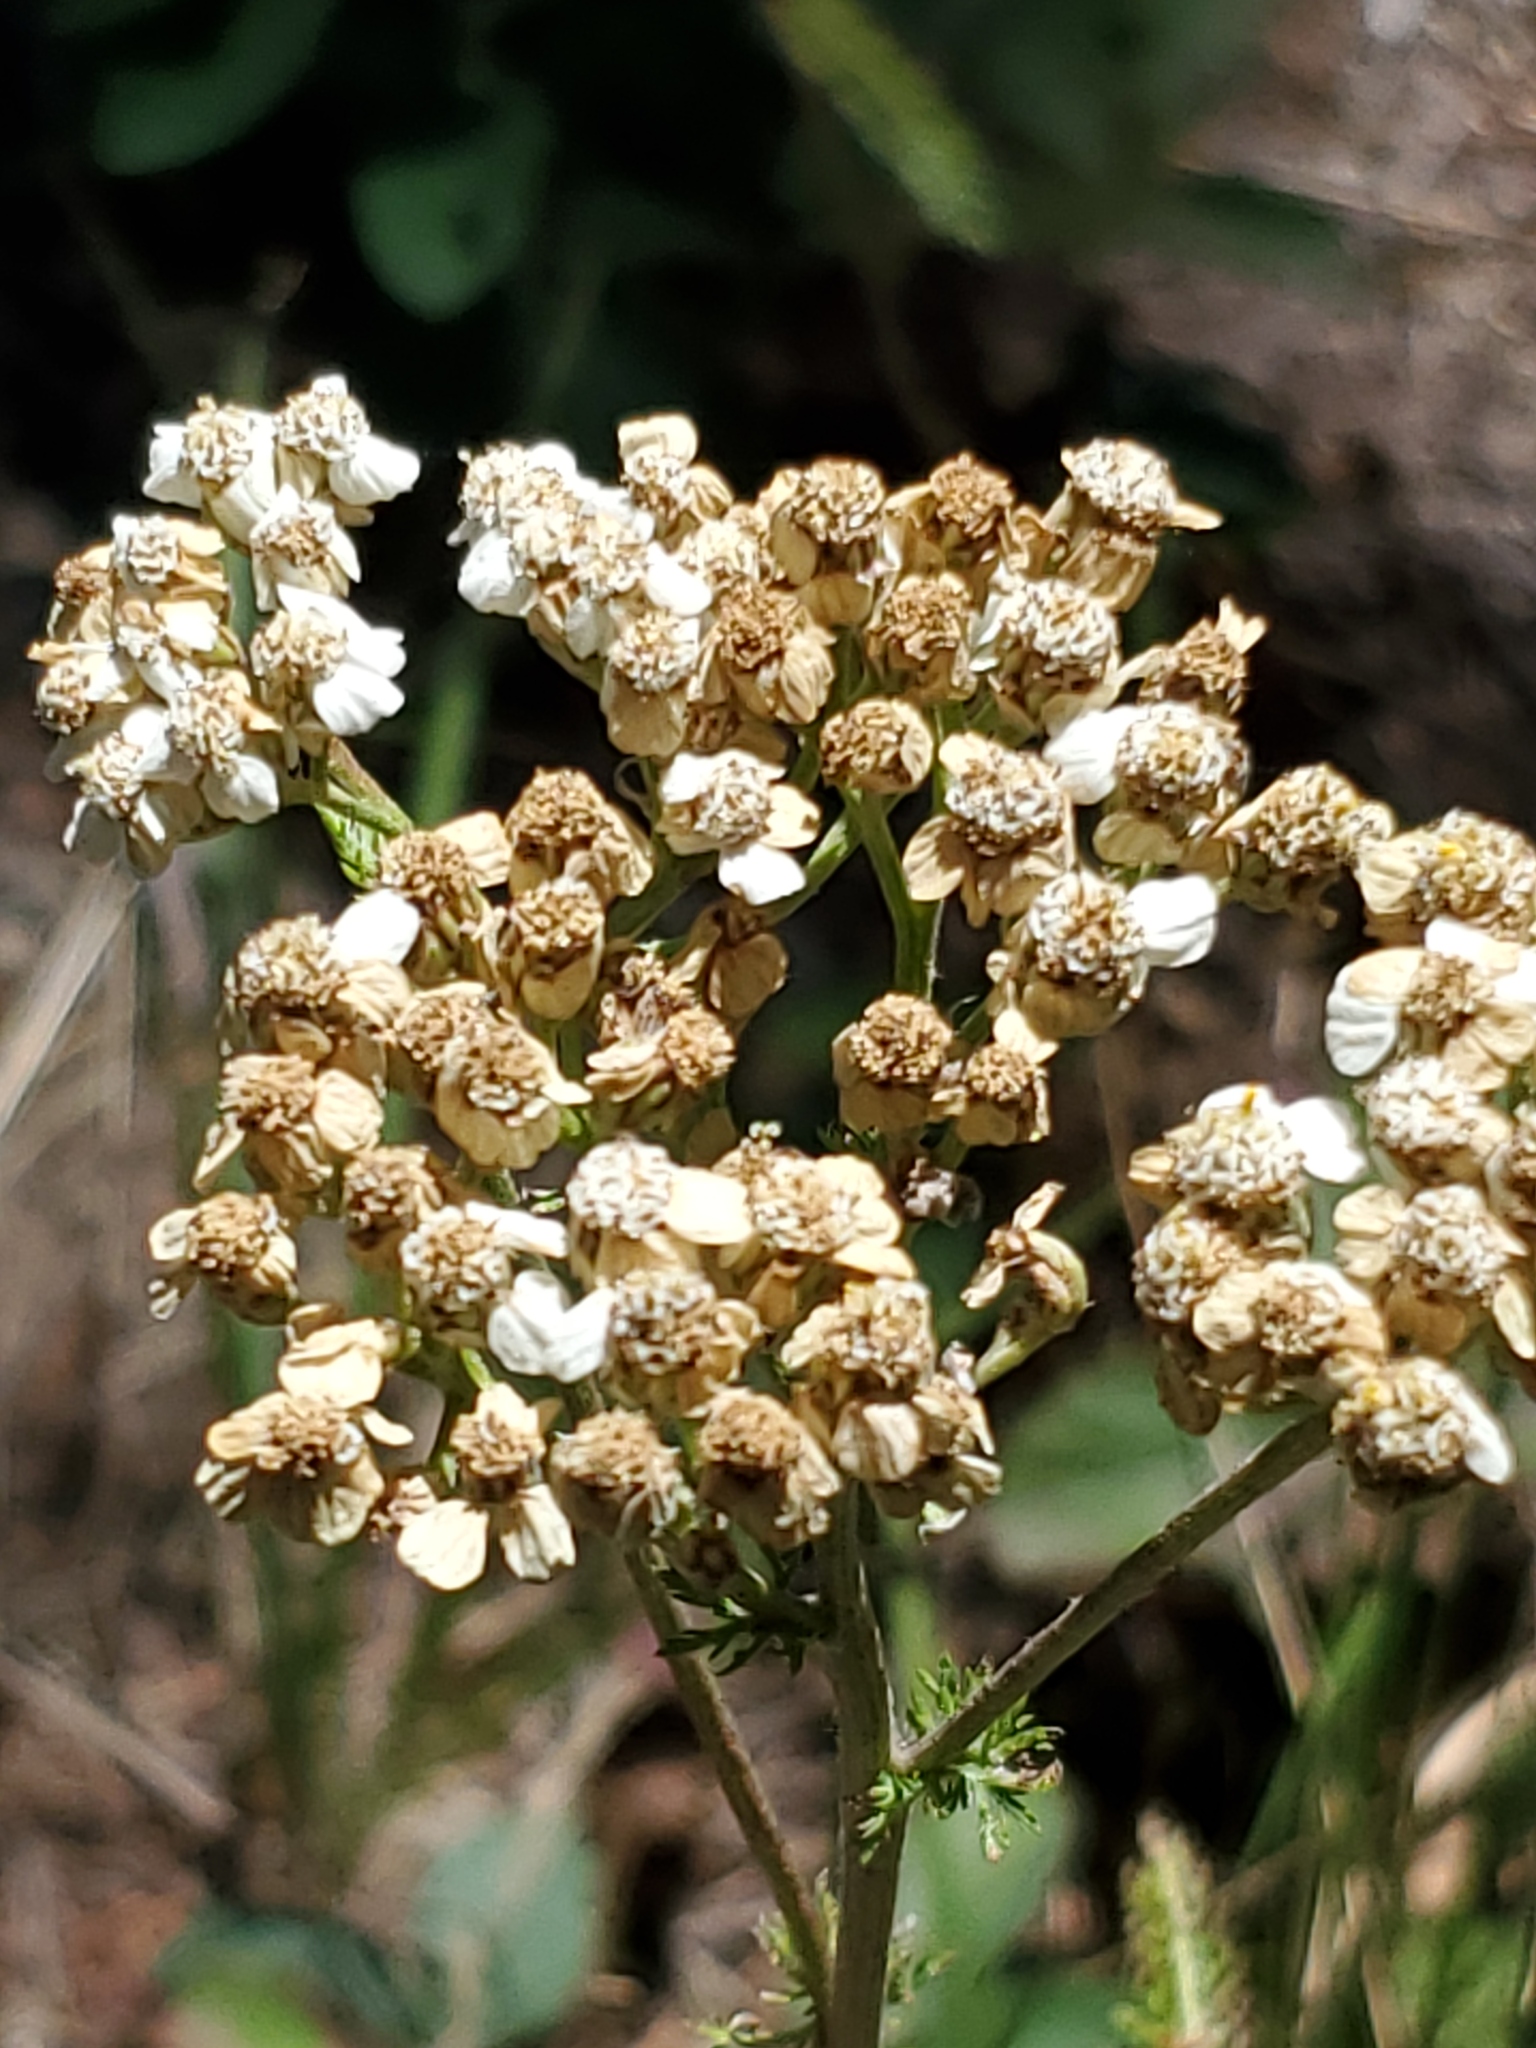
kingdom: Plantae
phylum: Tracheophyta
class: Magnoliopsida
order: Asterales
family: Asteraceae
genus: Achillea
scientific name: Achillea millefolium
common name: Yarrow
